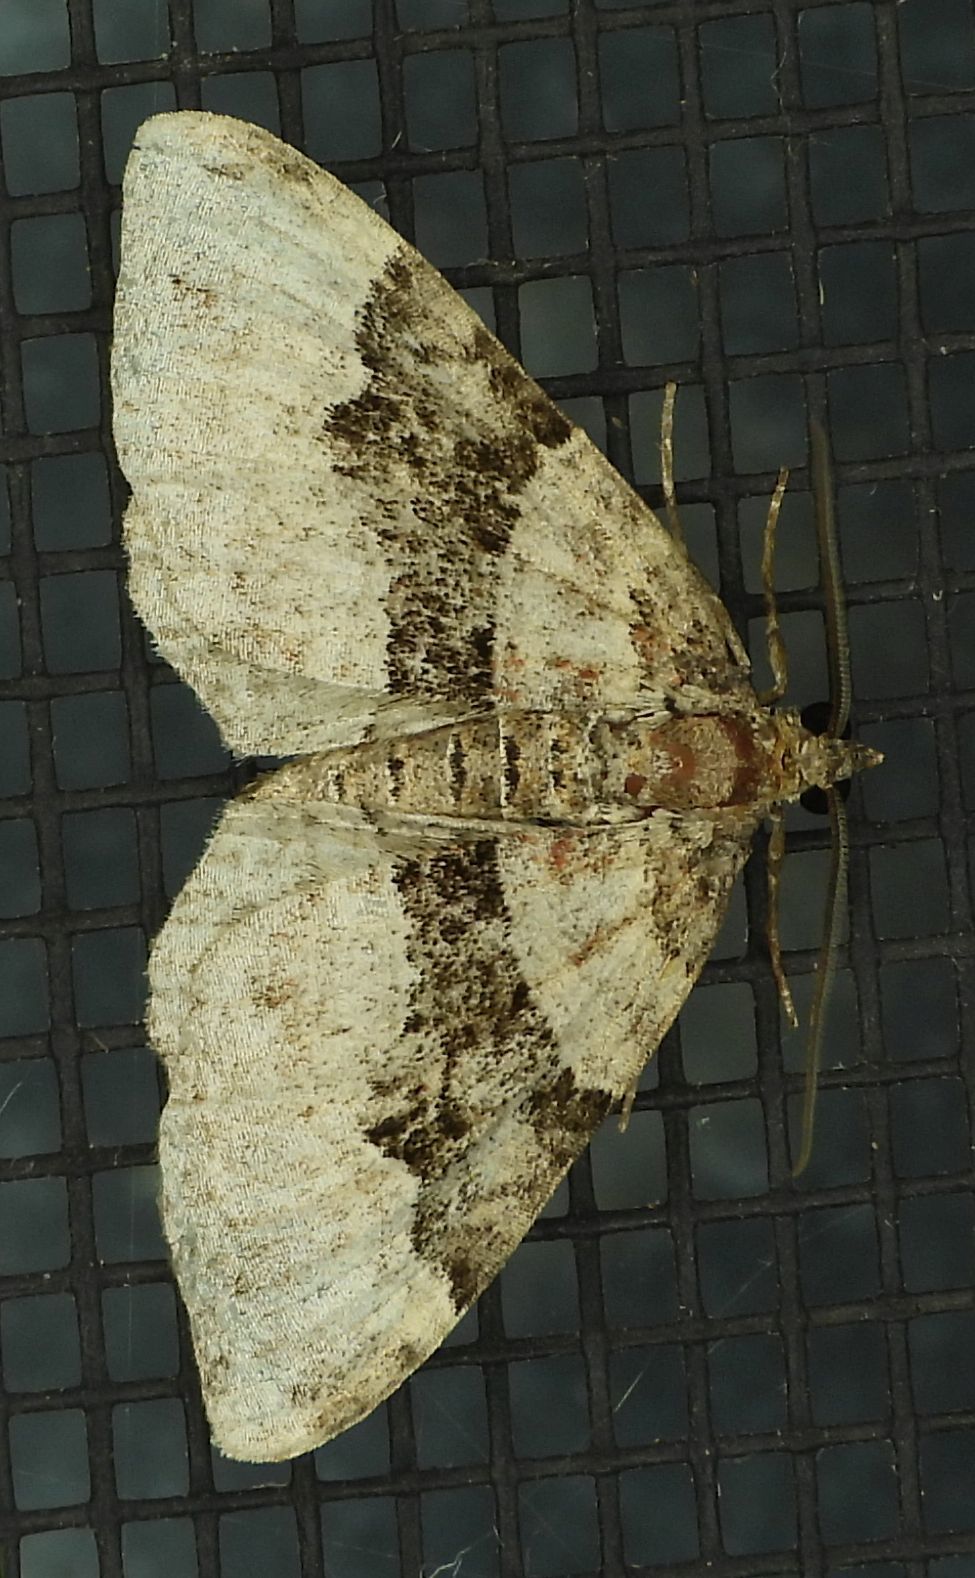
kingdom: Animalia
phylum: Arthropoda
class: Insecta
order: Lepidoptera
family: Geometridae
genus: Xanthorhoe
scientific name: Xanthorhoe lacustrata
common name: Toothed brown carpet
